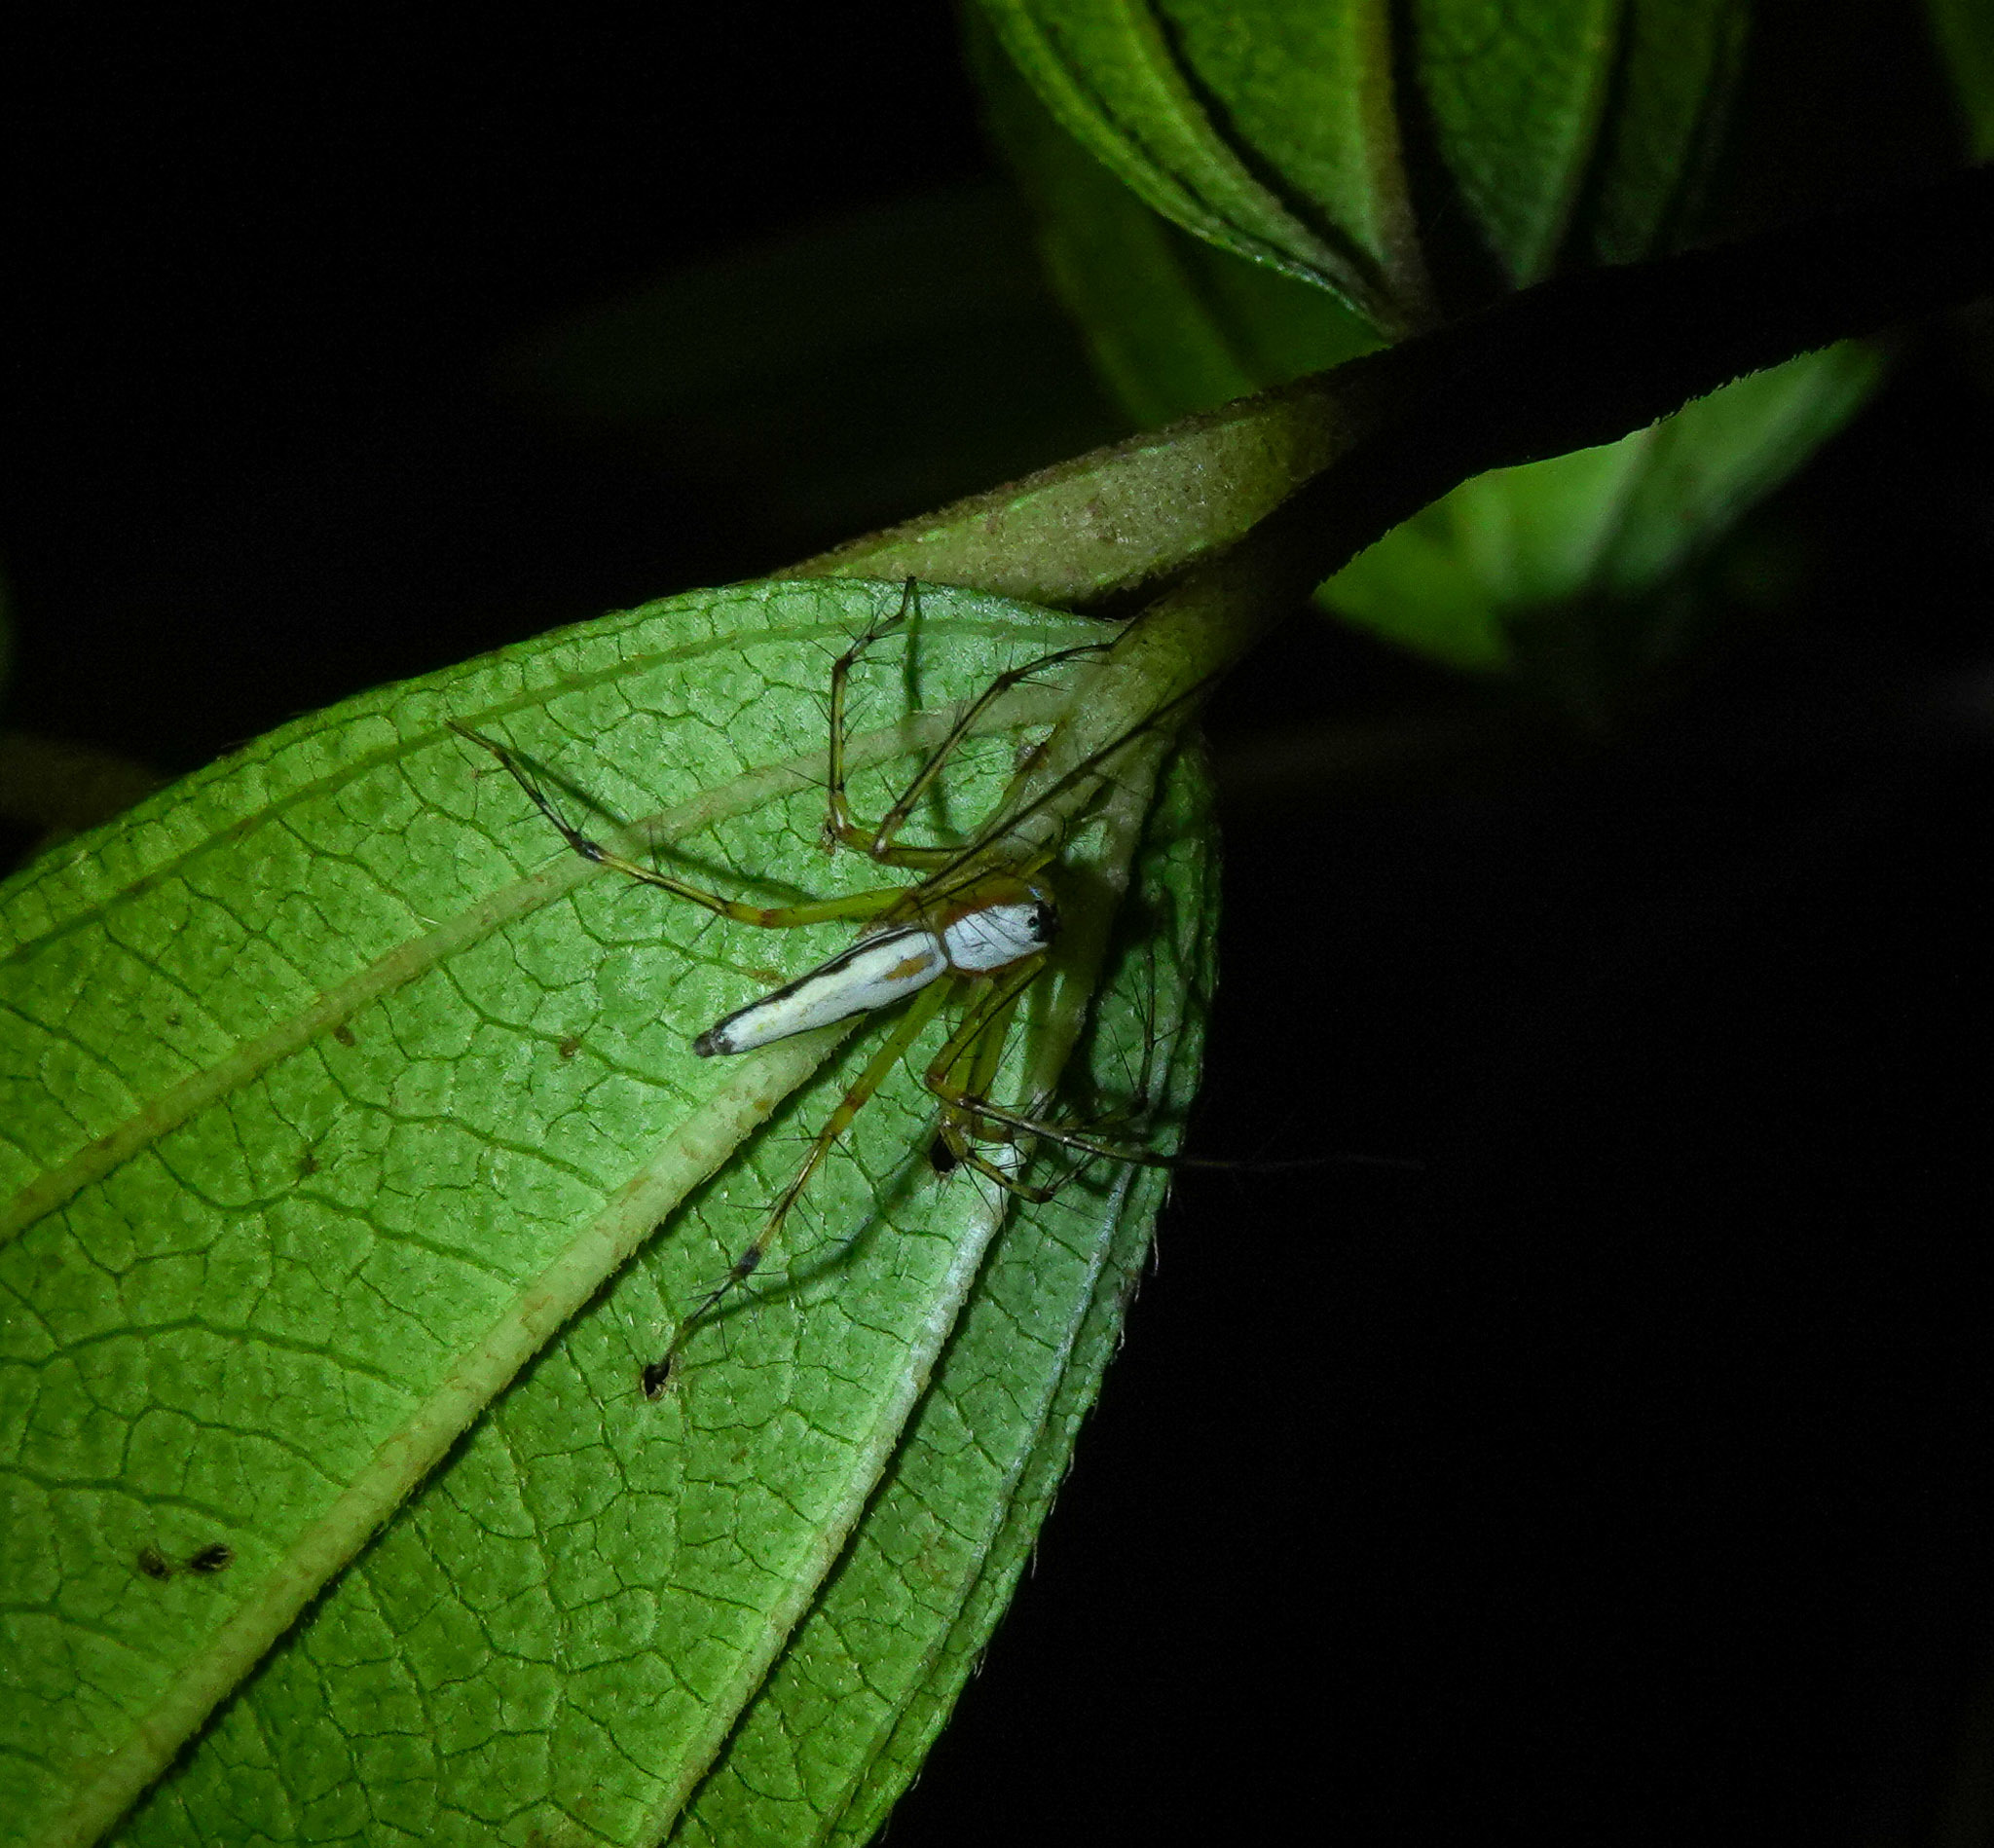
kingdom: Animalia
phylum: Arthropoda
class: Arachnida
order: Araneae
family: Oxyopidae
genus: Oxyopes
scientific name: Oxyopes shweta
